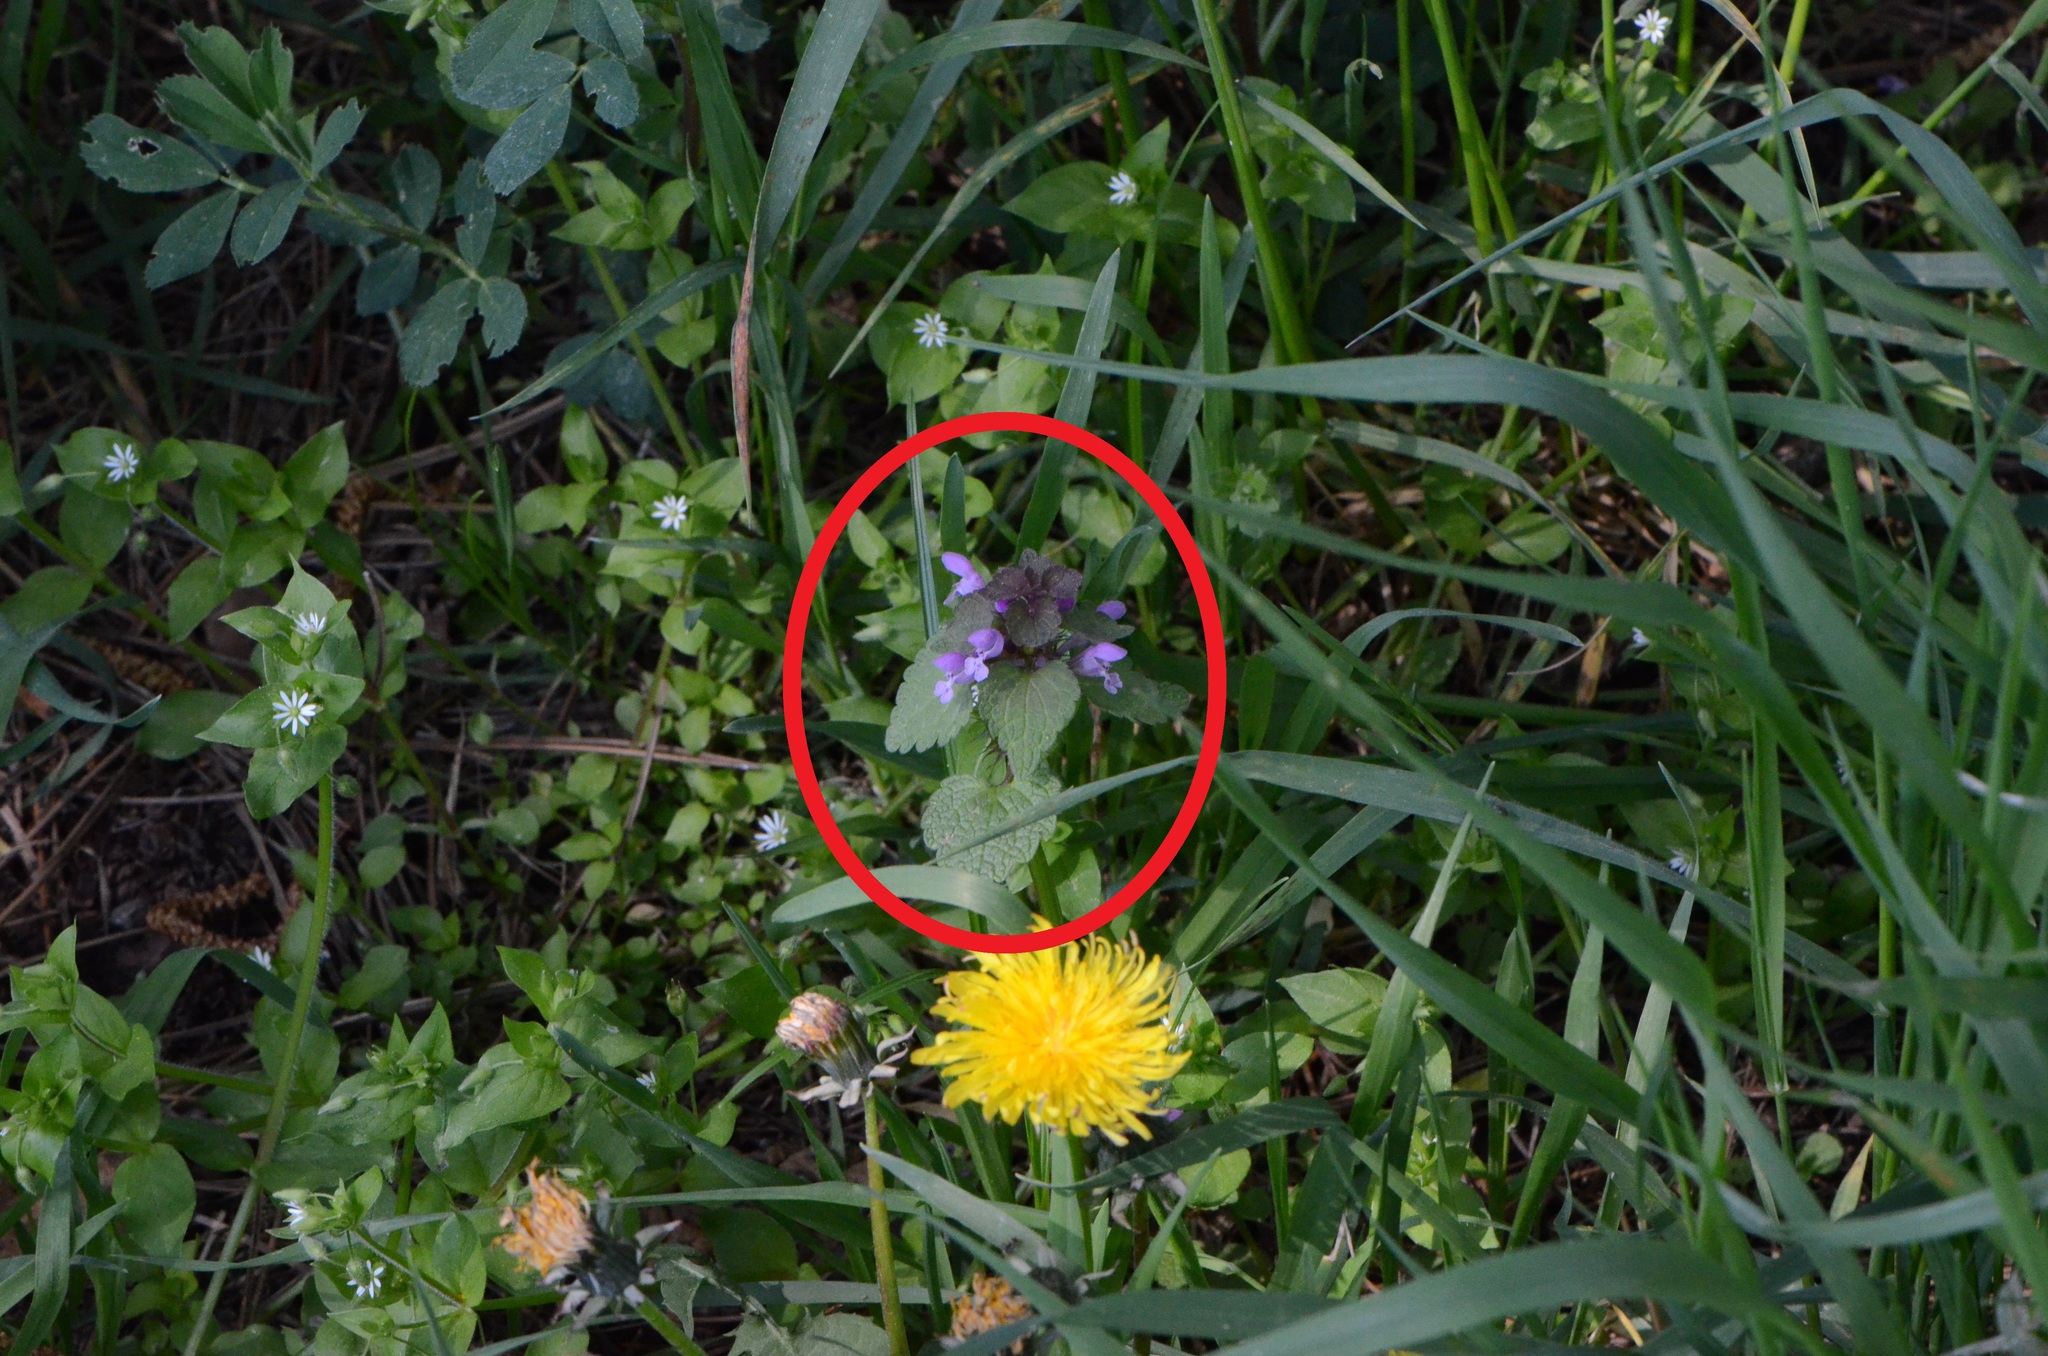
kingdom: Plantae
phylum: Tracheophyta
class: Magnoliopsida
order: Lamiales
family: Lamiaceae
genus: Lamium
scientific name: Lamium purpureum
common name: Red dead-nettle
